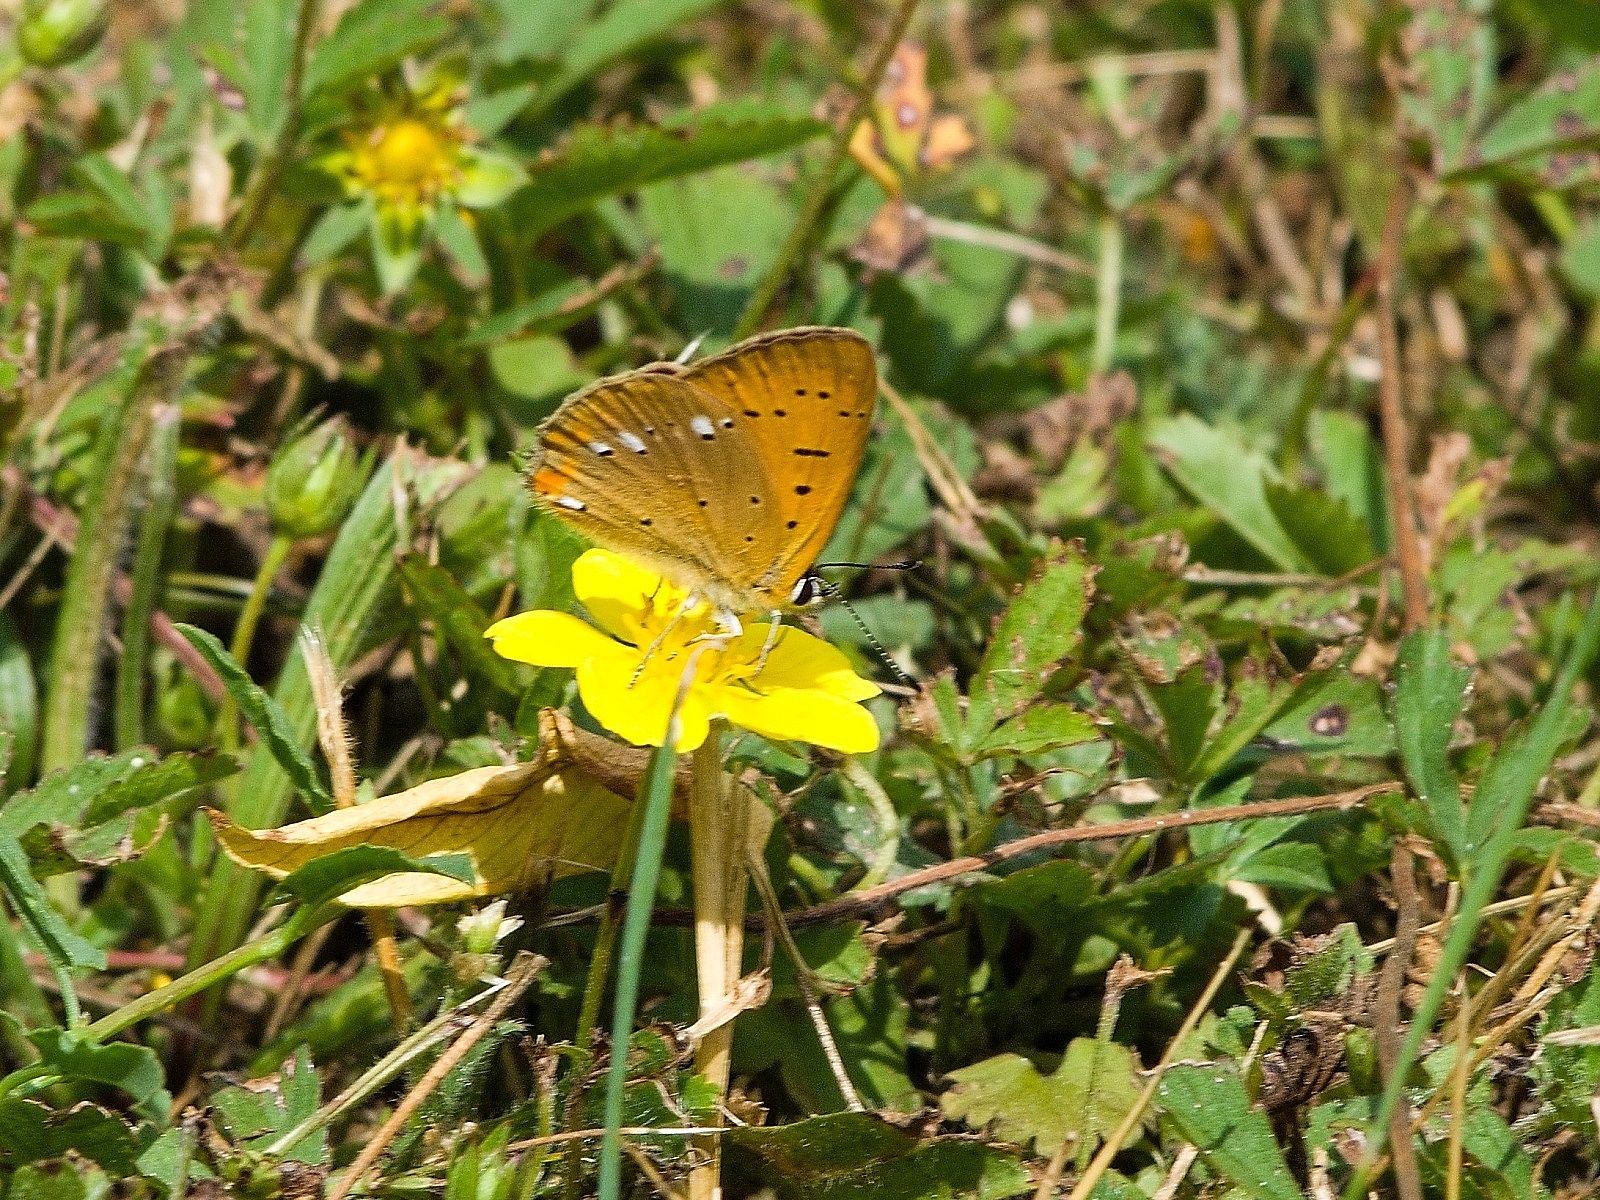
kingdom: Animalia
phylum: Arthropoda
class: Insecta
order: Lepidoptera
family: Lycaenidae
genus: Lycaena
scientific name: Lycaena virgaureae
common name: Scarce copper
